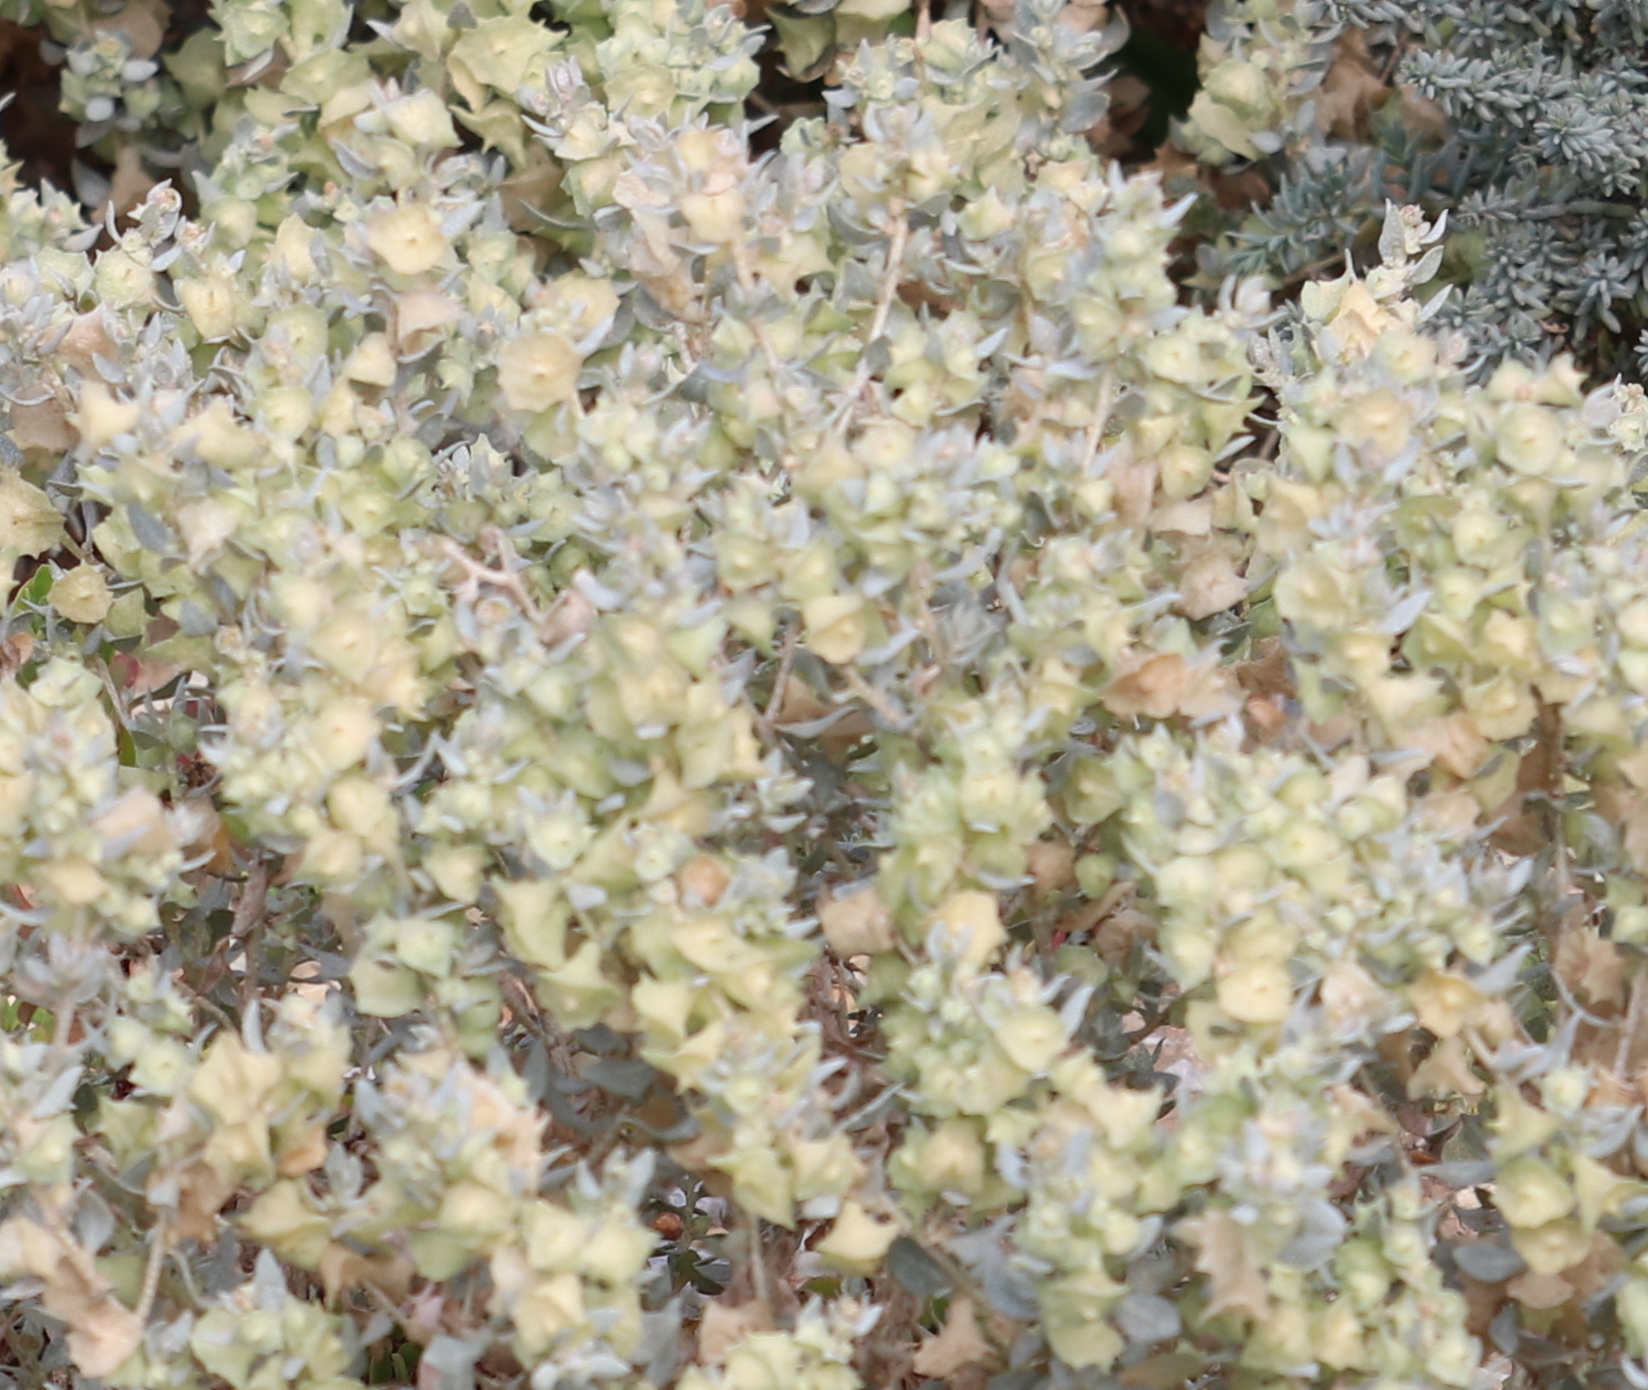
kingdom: Plantae
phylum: Tracheophyta
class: Magnoliopsida
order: Caryophyllales
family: Amaranthaceae
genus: Atriplex
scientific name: Atriplex lindleyi
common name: Lindley's saltbush
